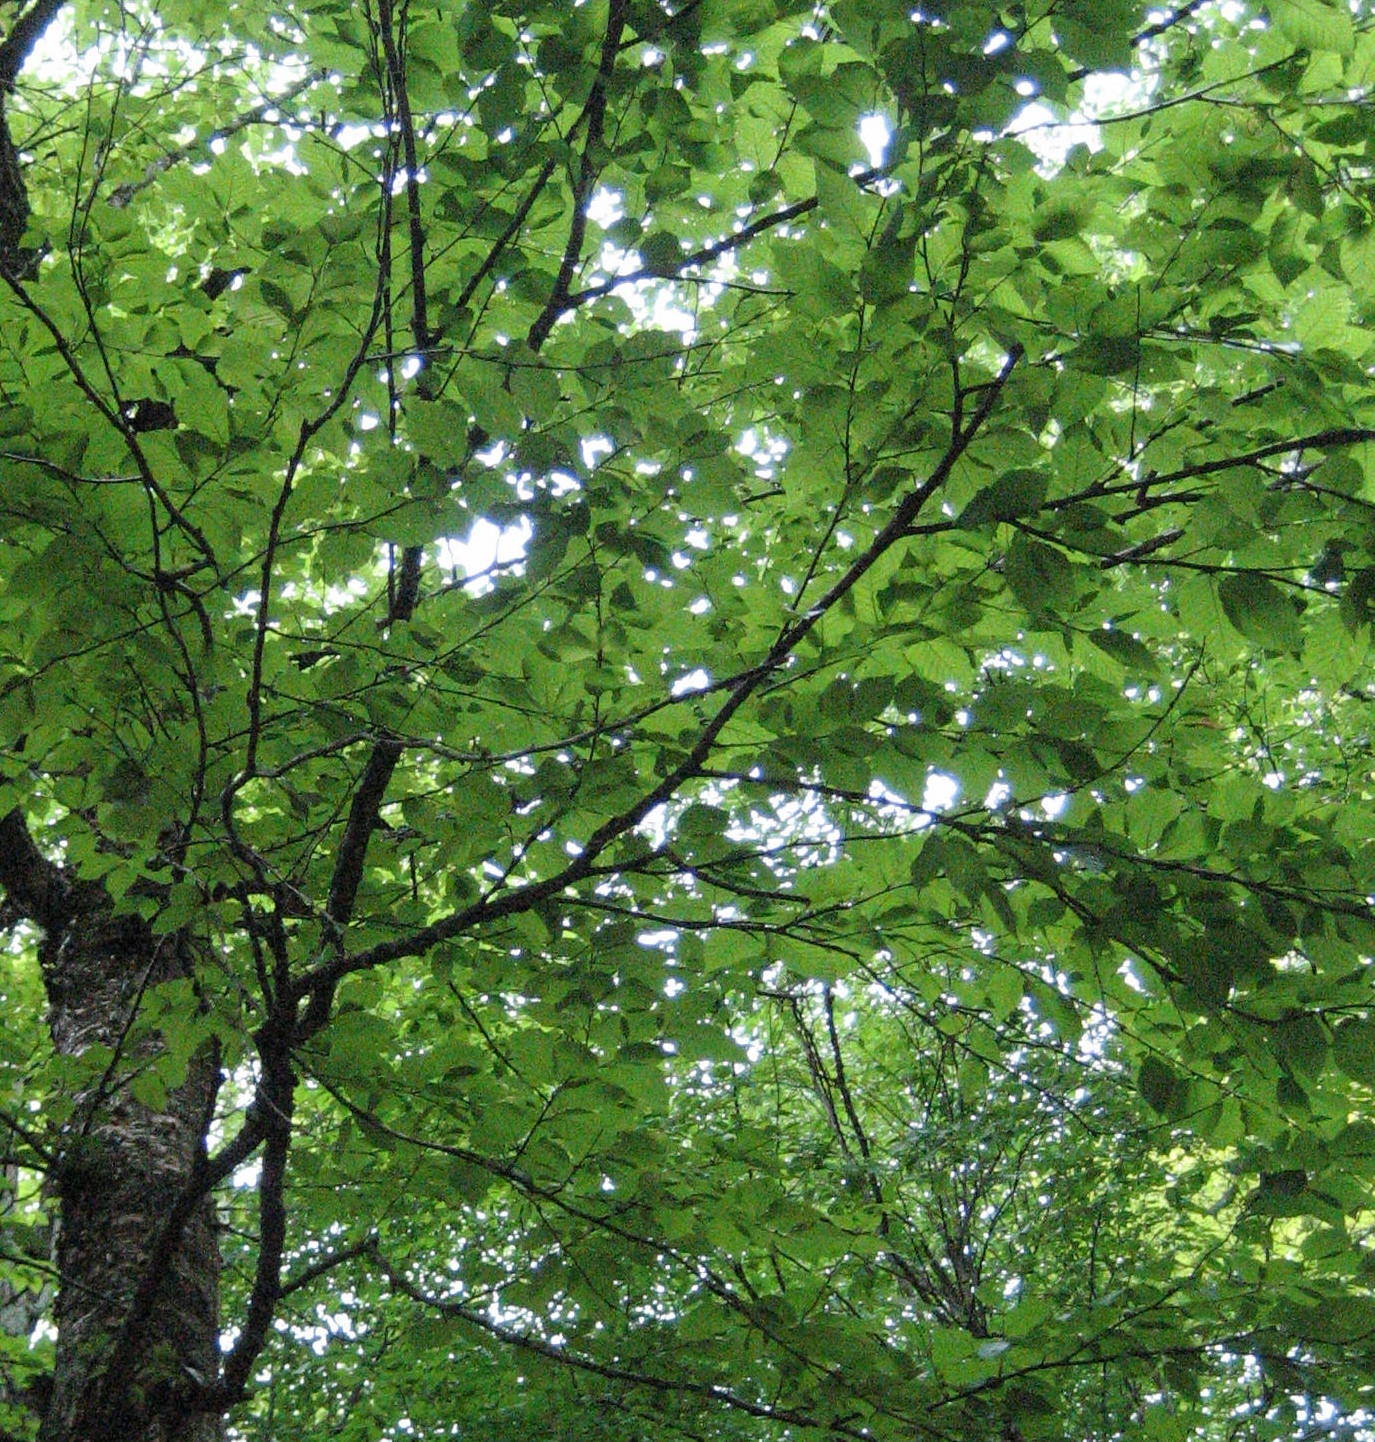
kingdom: Plantae
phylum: Tracheophyta
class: Magnoliopsida
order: Fagales
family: Betulaceae
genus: Betula
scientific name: Betula alleghaniensis
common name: Yellow birch
